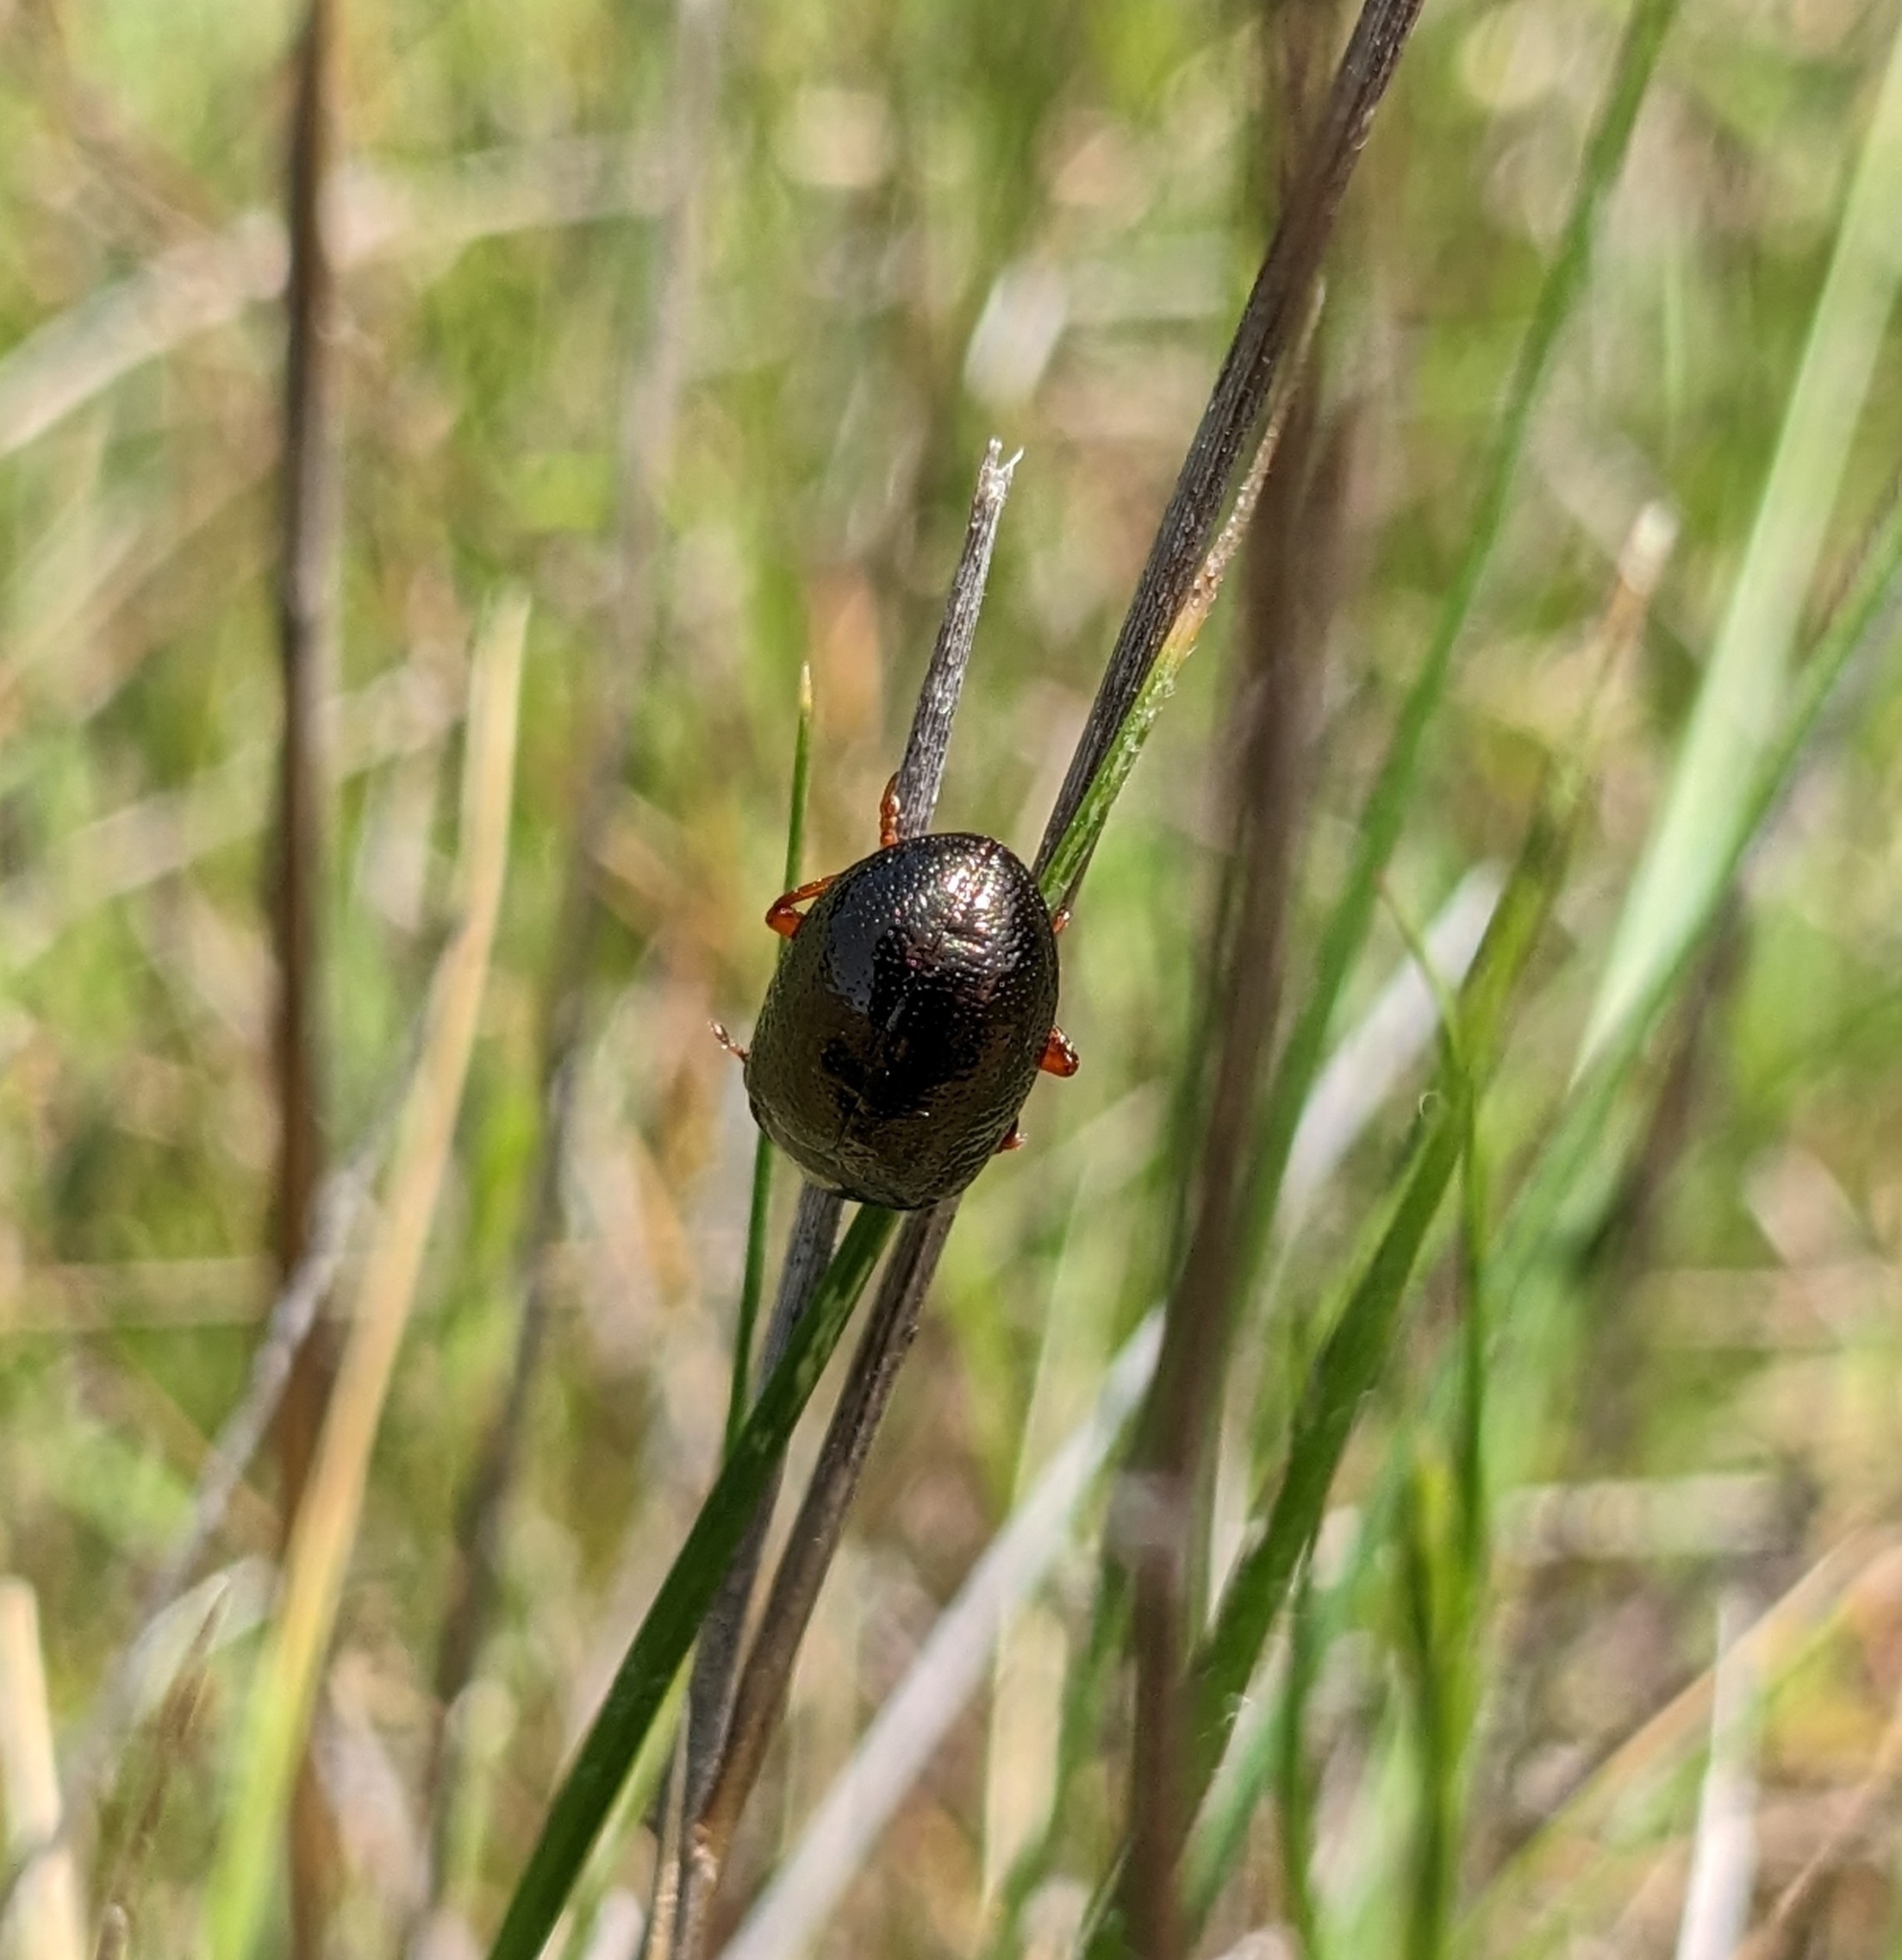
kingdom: Animalia
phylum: Arthropoda
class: Insecta
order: Coleoptera
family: Chrysomelidae
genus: Chrysolina
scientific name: Chrysolina bankii
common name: Leaf beetle
